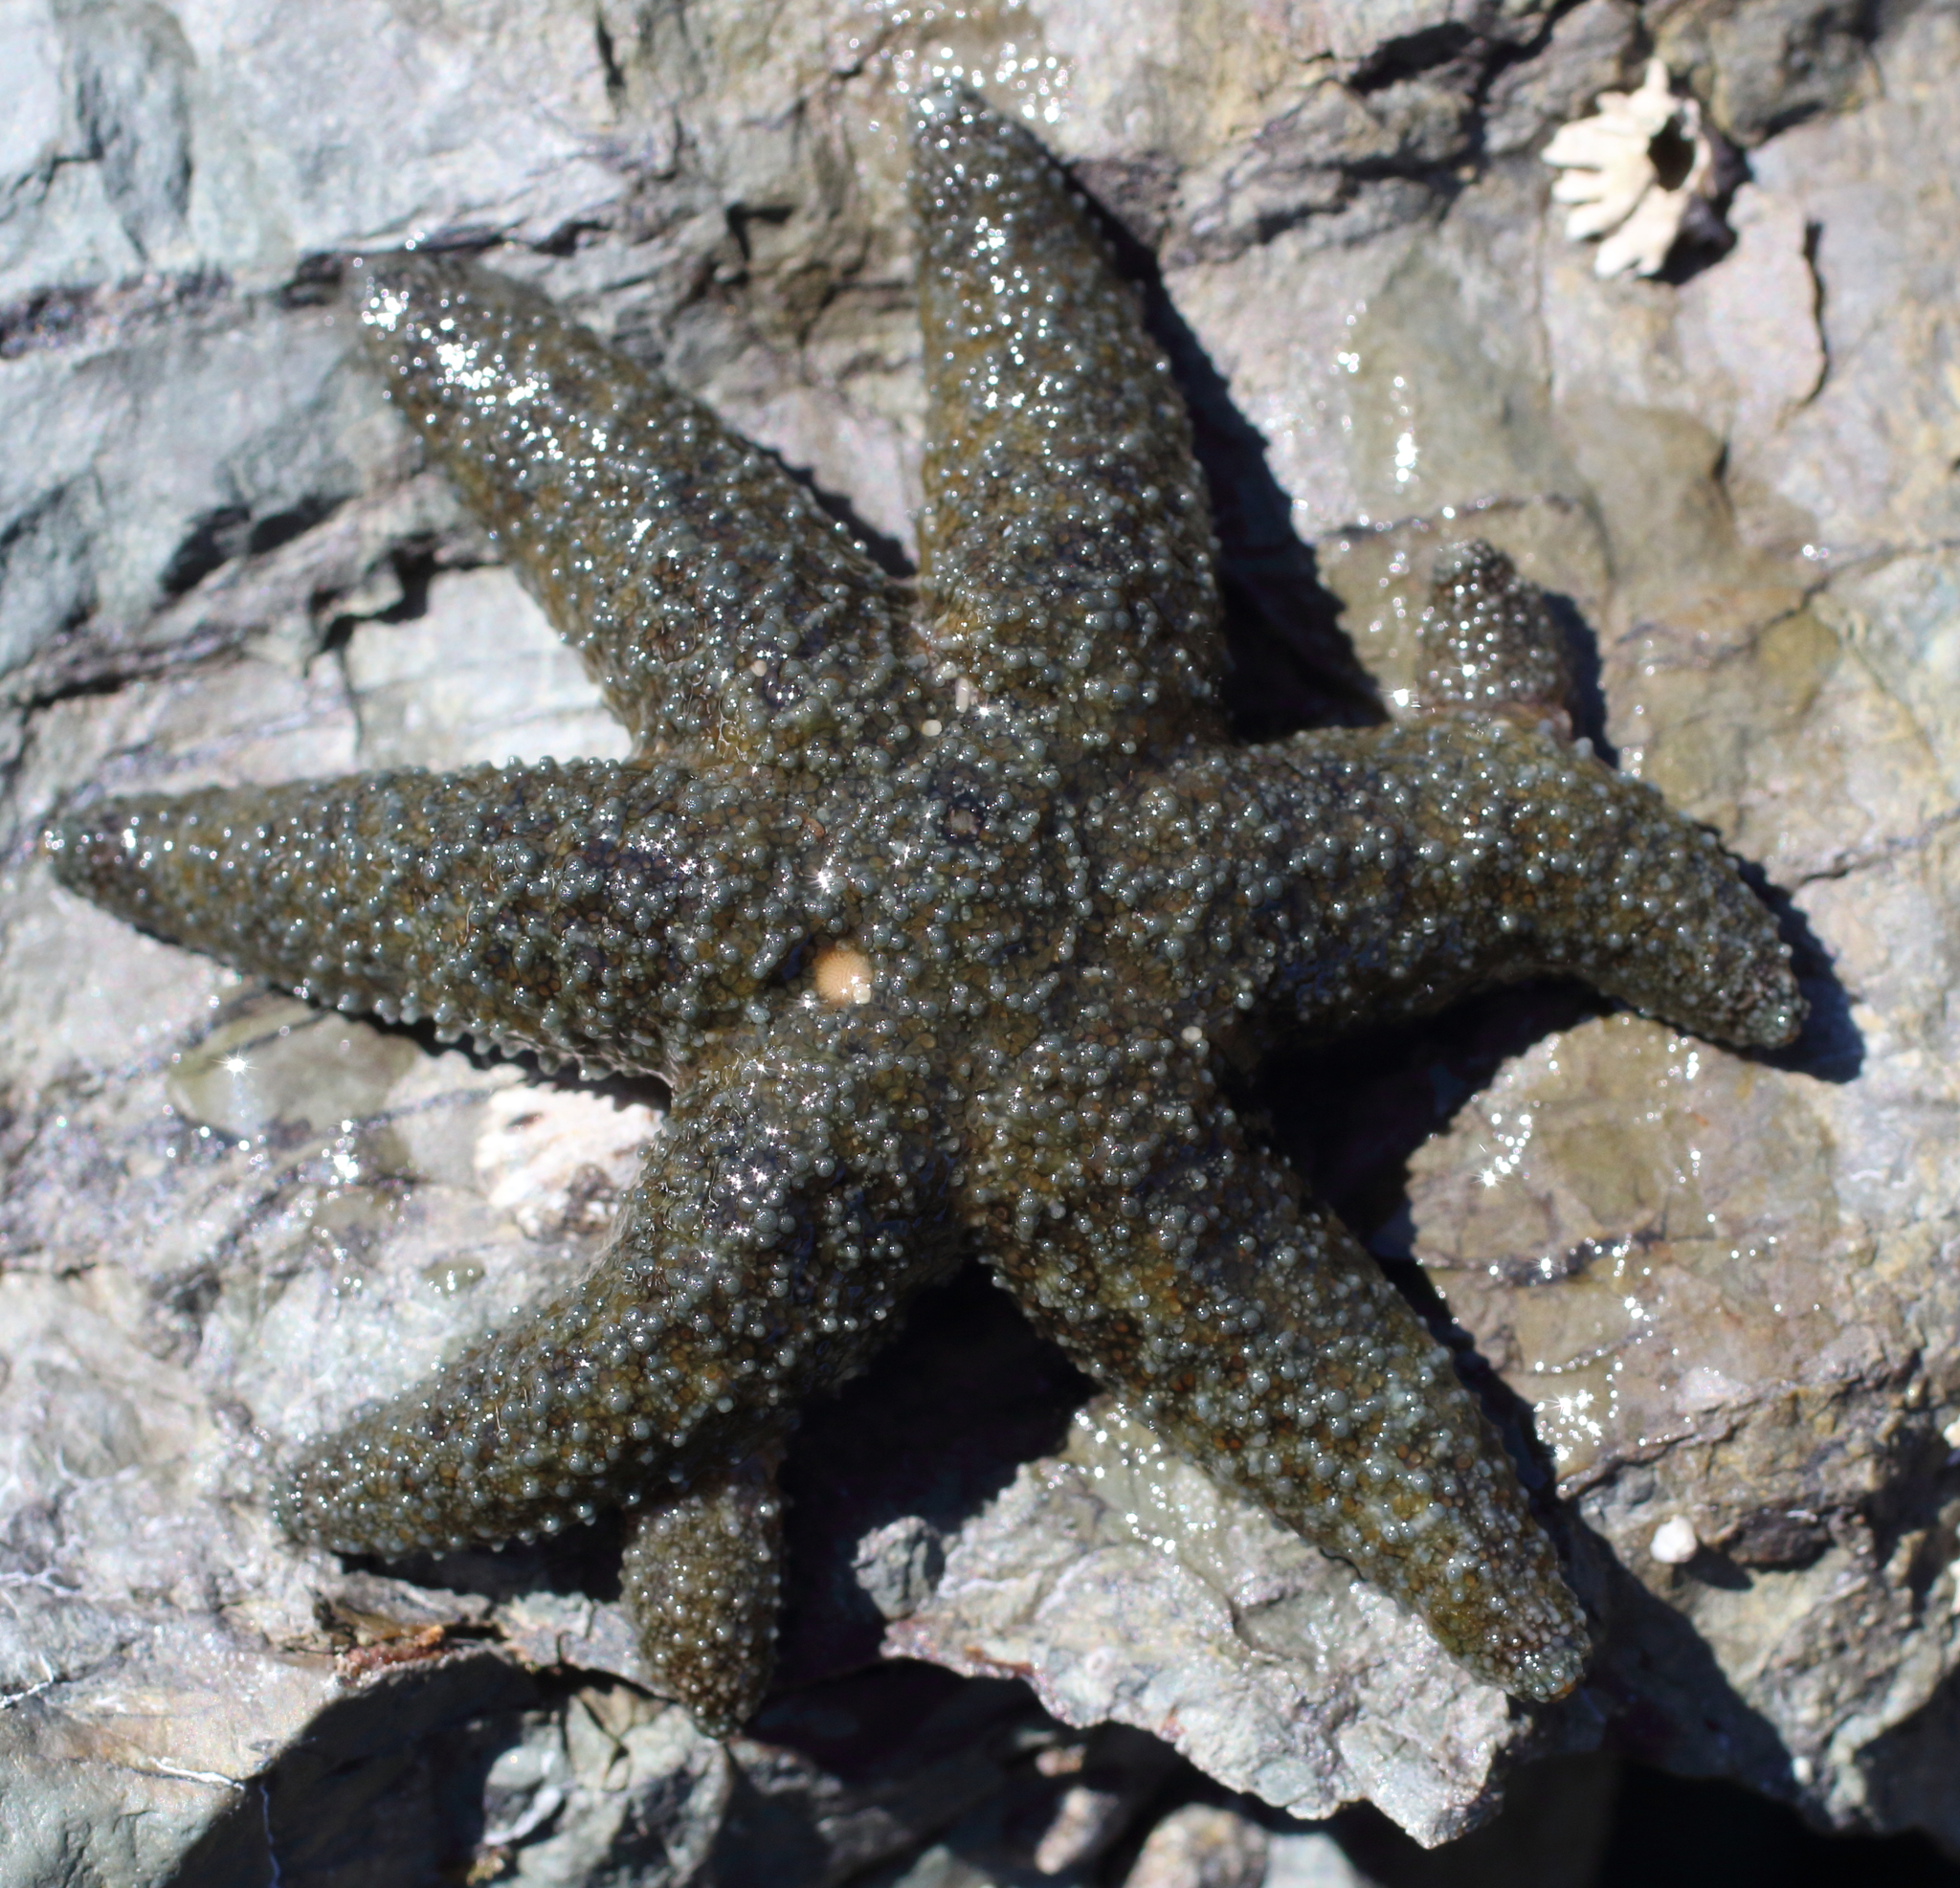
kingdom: Animalia
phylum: Echinodermata
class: Asteroidea
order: Forcipulatida
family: Asteriidae
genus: Leptasterias
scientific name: Leptasterias hexactis
